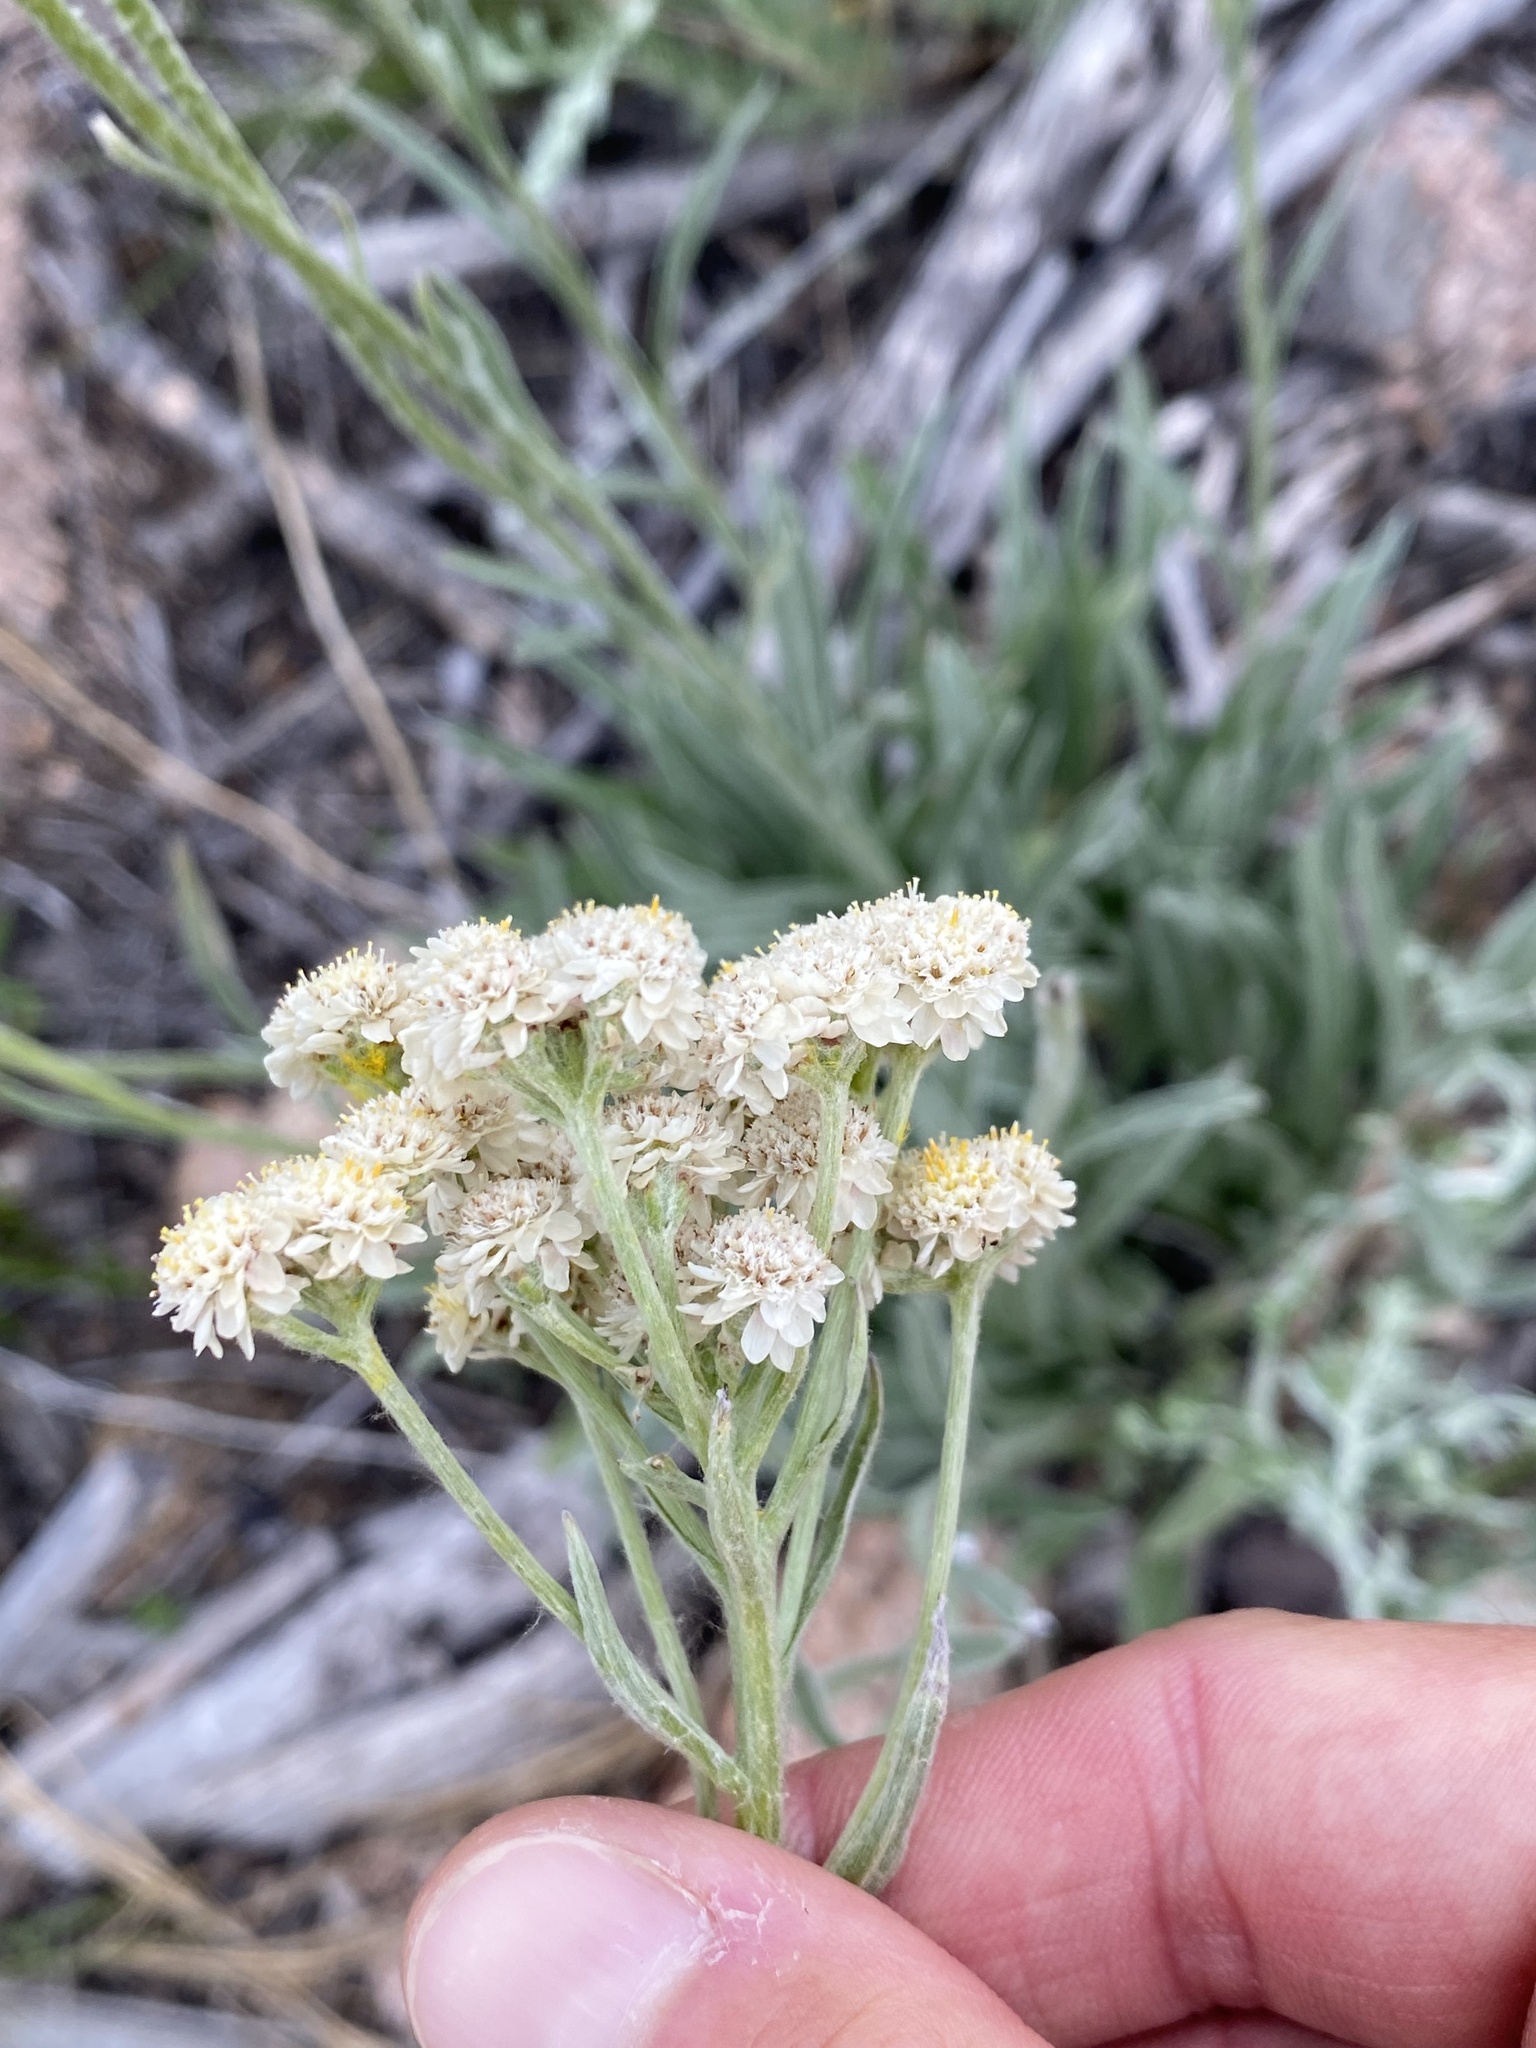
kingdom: Plantae
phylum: Tracheophyta
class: Magnoliopsida
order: Asterales
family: Asteraceae
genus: Antennaria
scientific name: Antennaria anaphaloides
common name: Tall pussytoes
